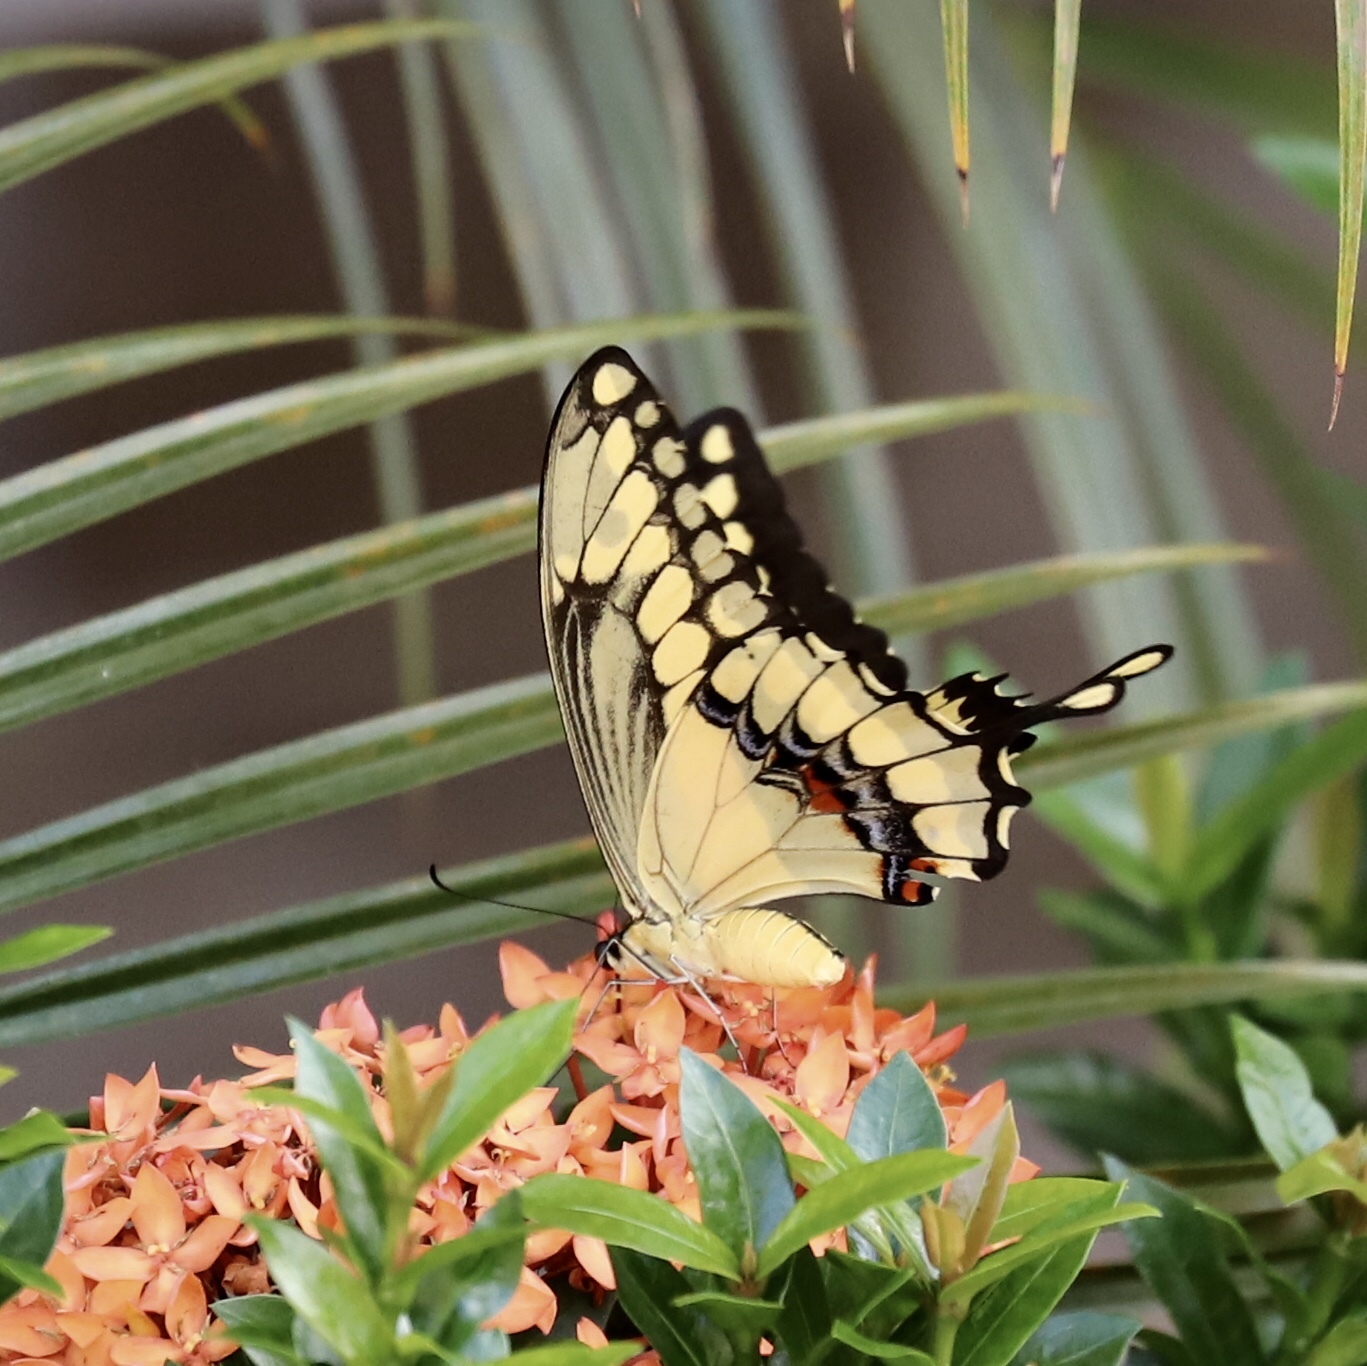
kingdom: Animalia
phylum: Arthropoda
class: Insecta
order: Lepidoptera
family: Papilionidae
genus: Papilio
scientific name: Papilio thoas
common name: King swallowtail
